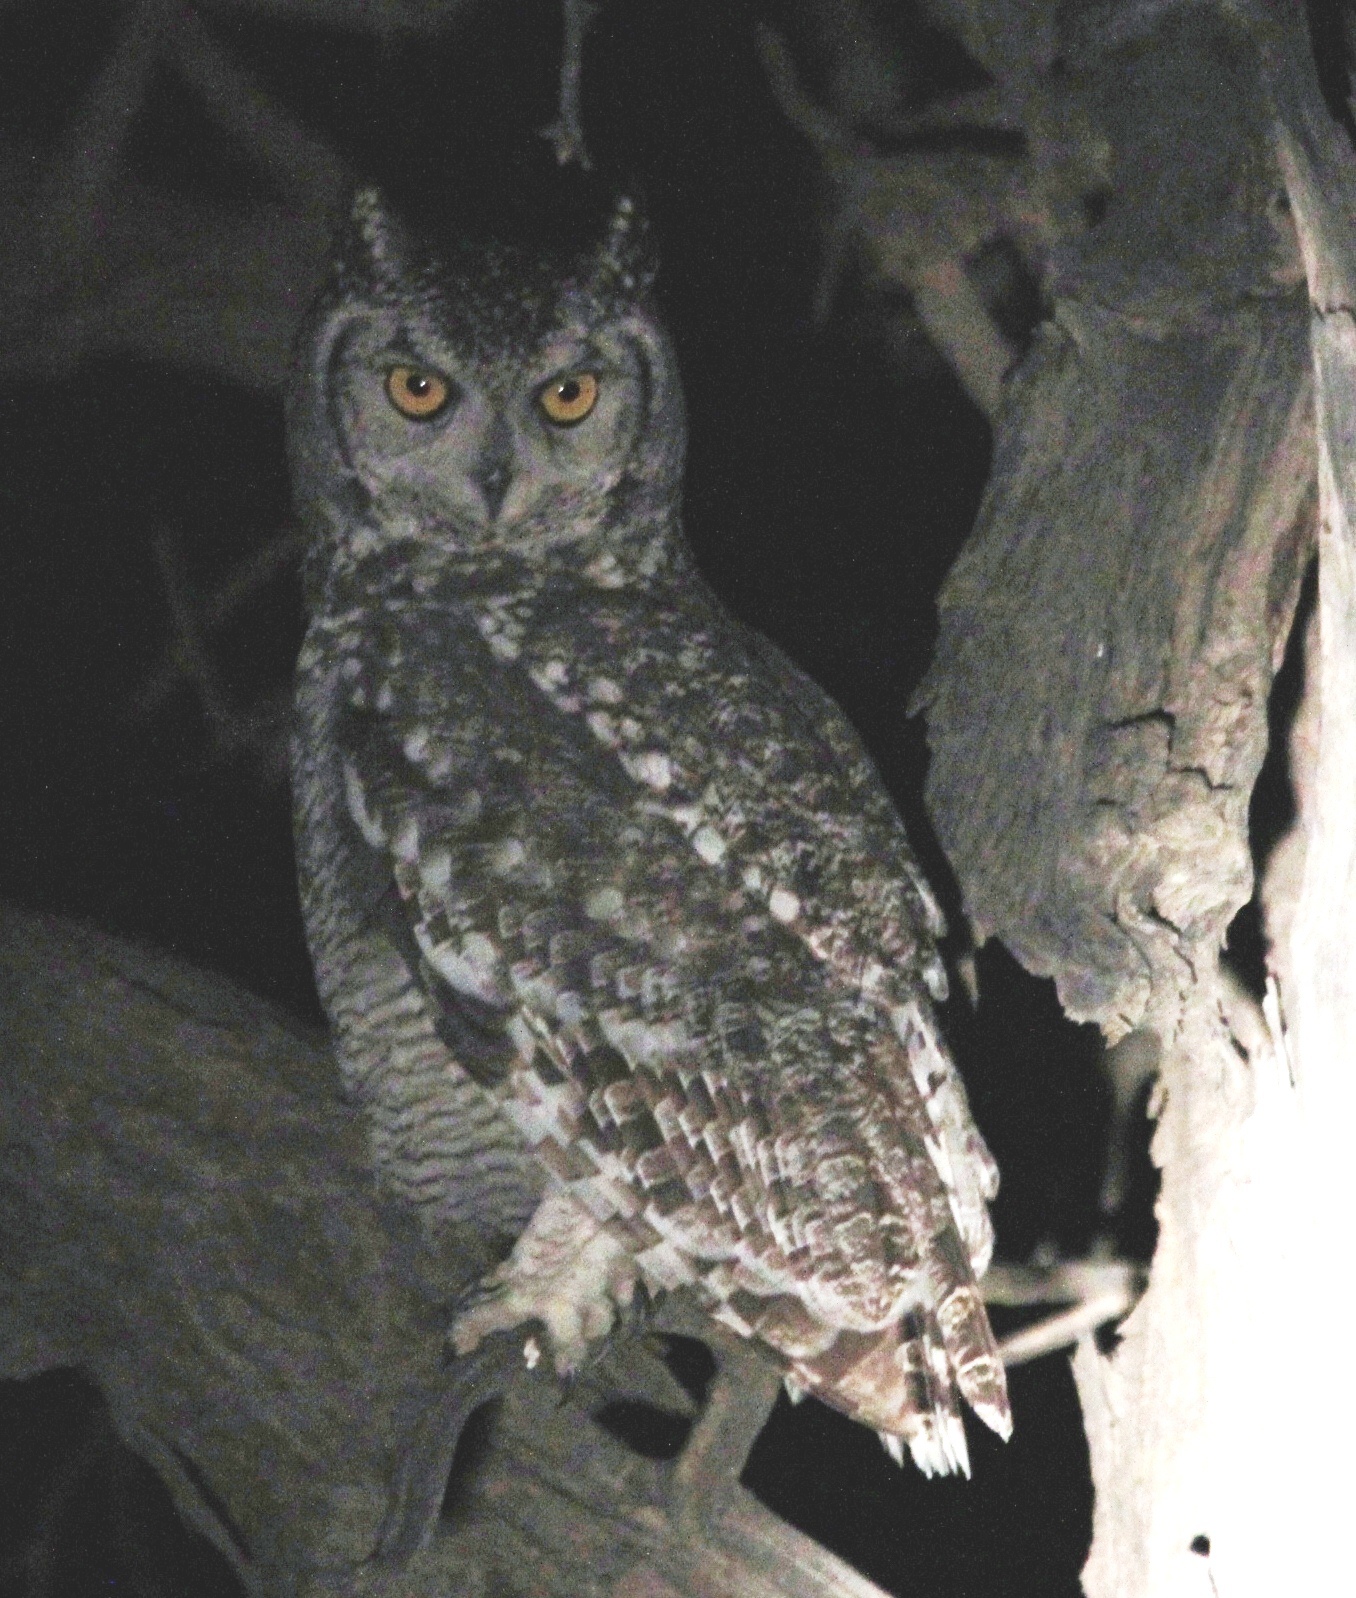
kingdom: Animalia
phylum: Chordata
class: Aves
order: Strigiformes
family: Strigidae
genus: Bubo
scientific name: Bubo africanus
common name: Spotted eagle-owl
